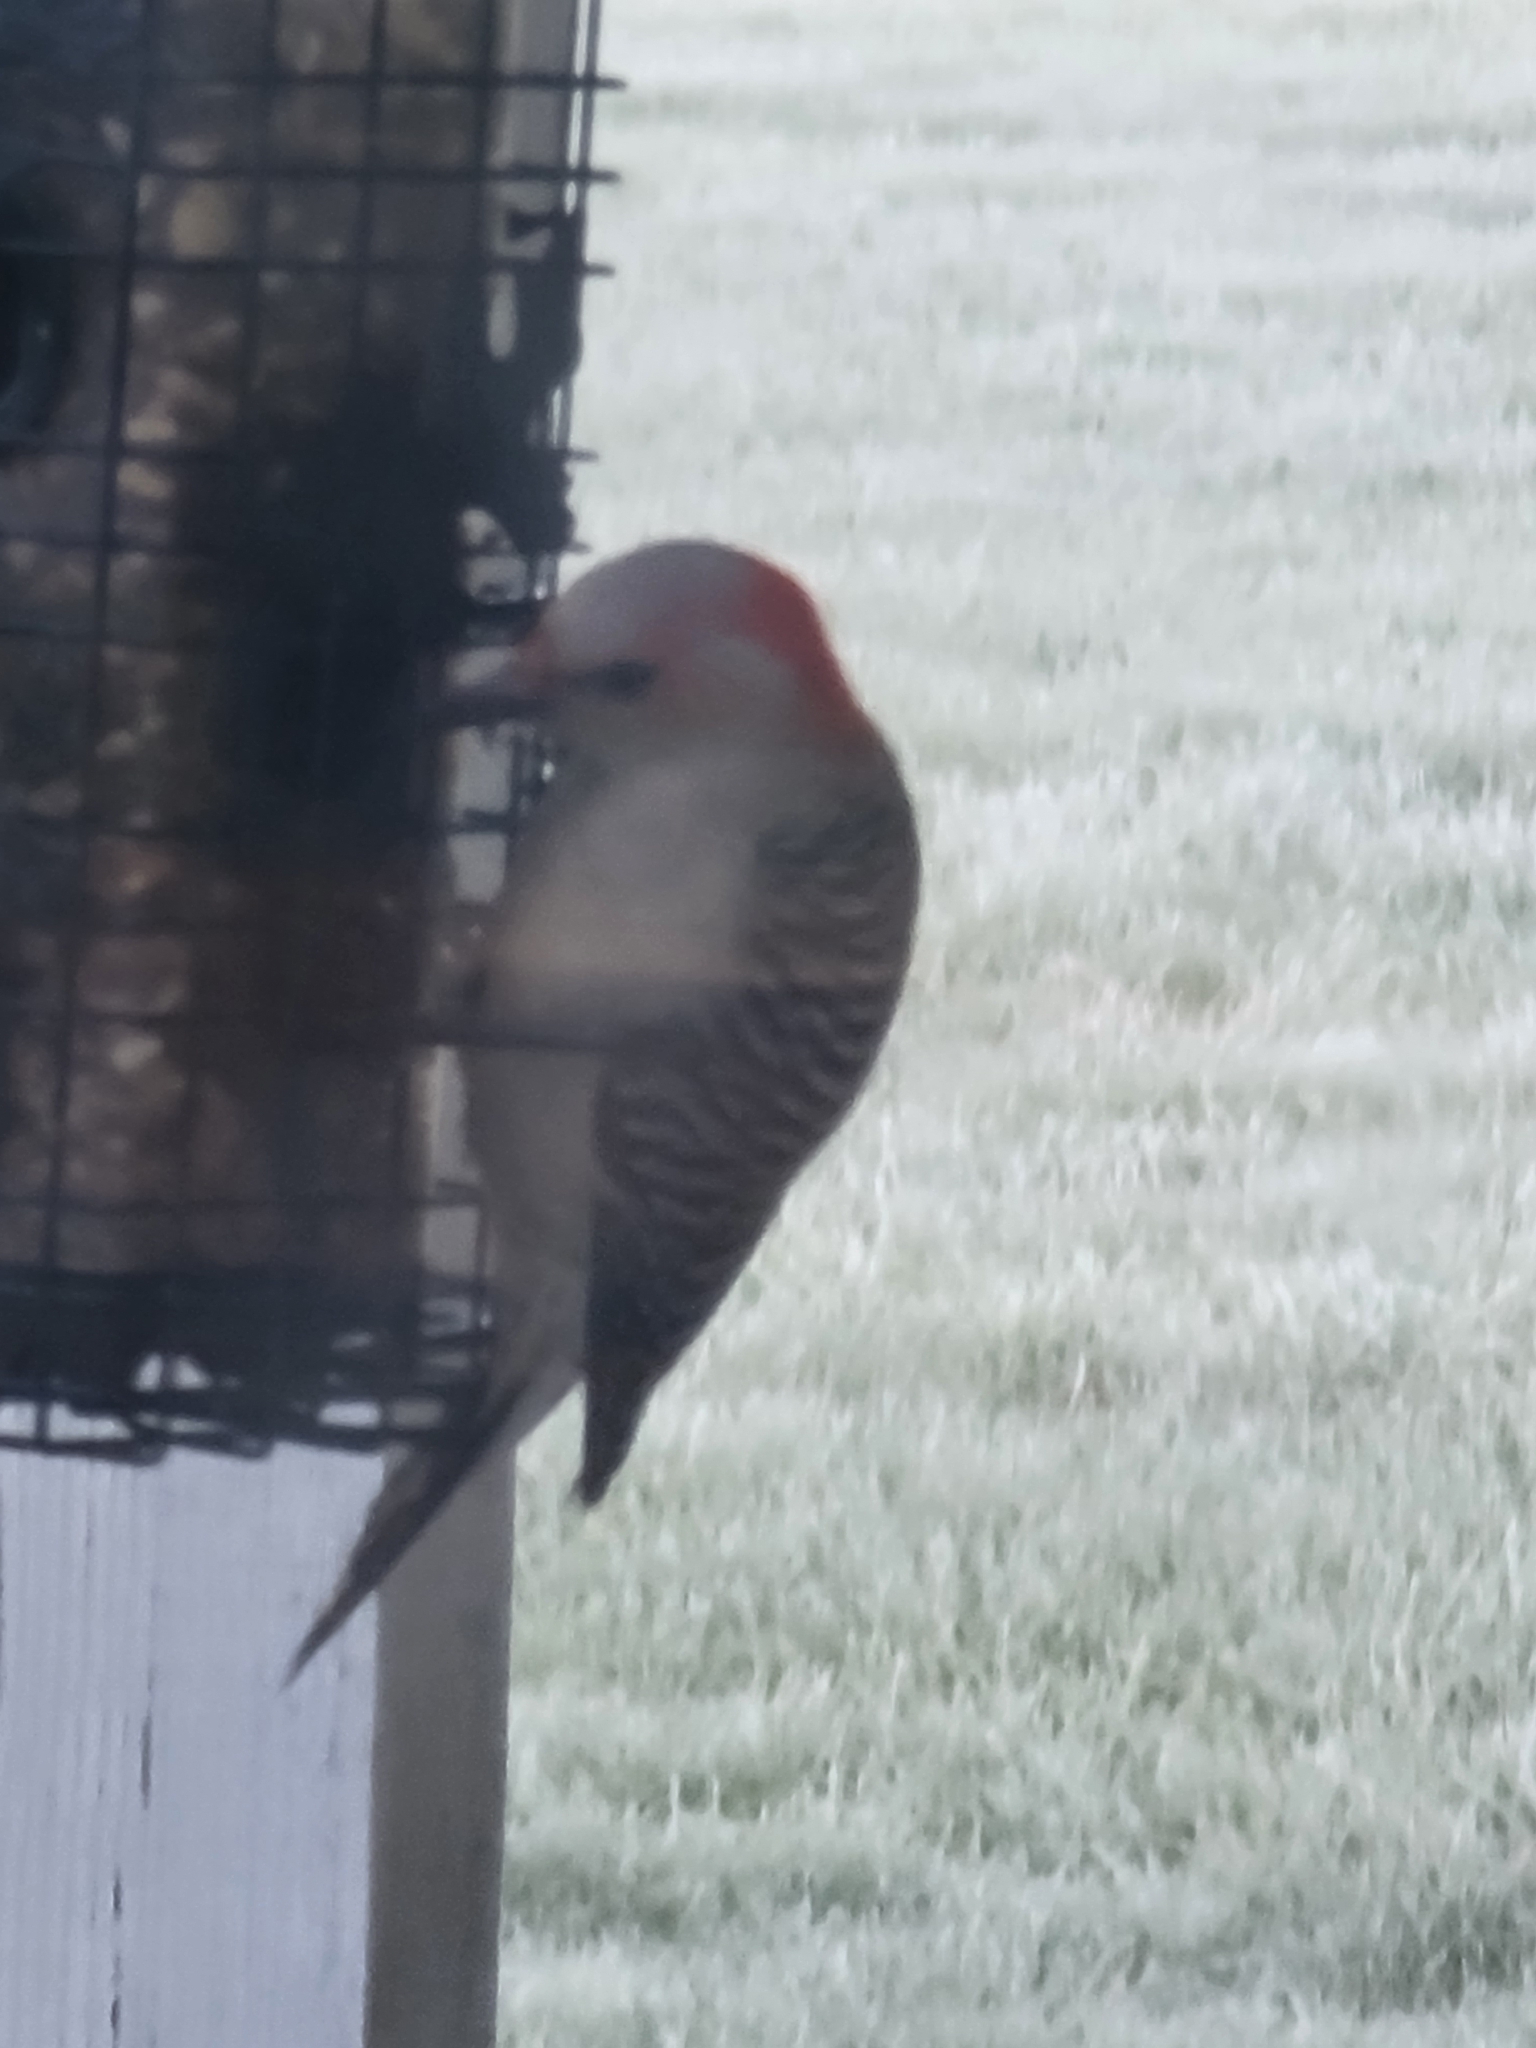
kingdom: Animalia
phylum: Chordata
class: Aves
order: Piciformes
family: Picidae
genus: Melanerpes
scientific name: Melanerpes carolinus
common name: Red-bellied woodpecker
